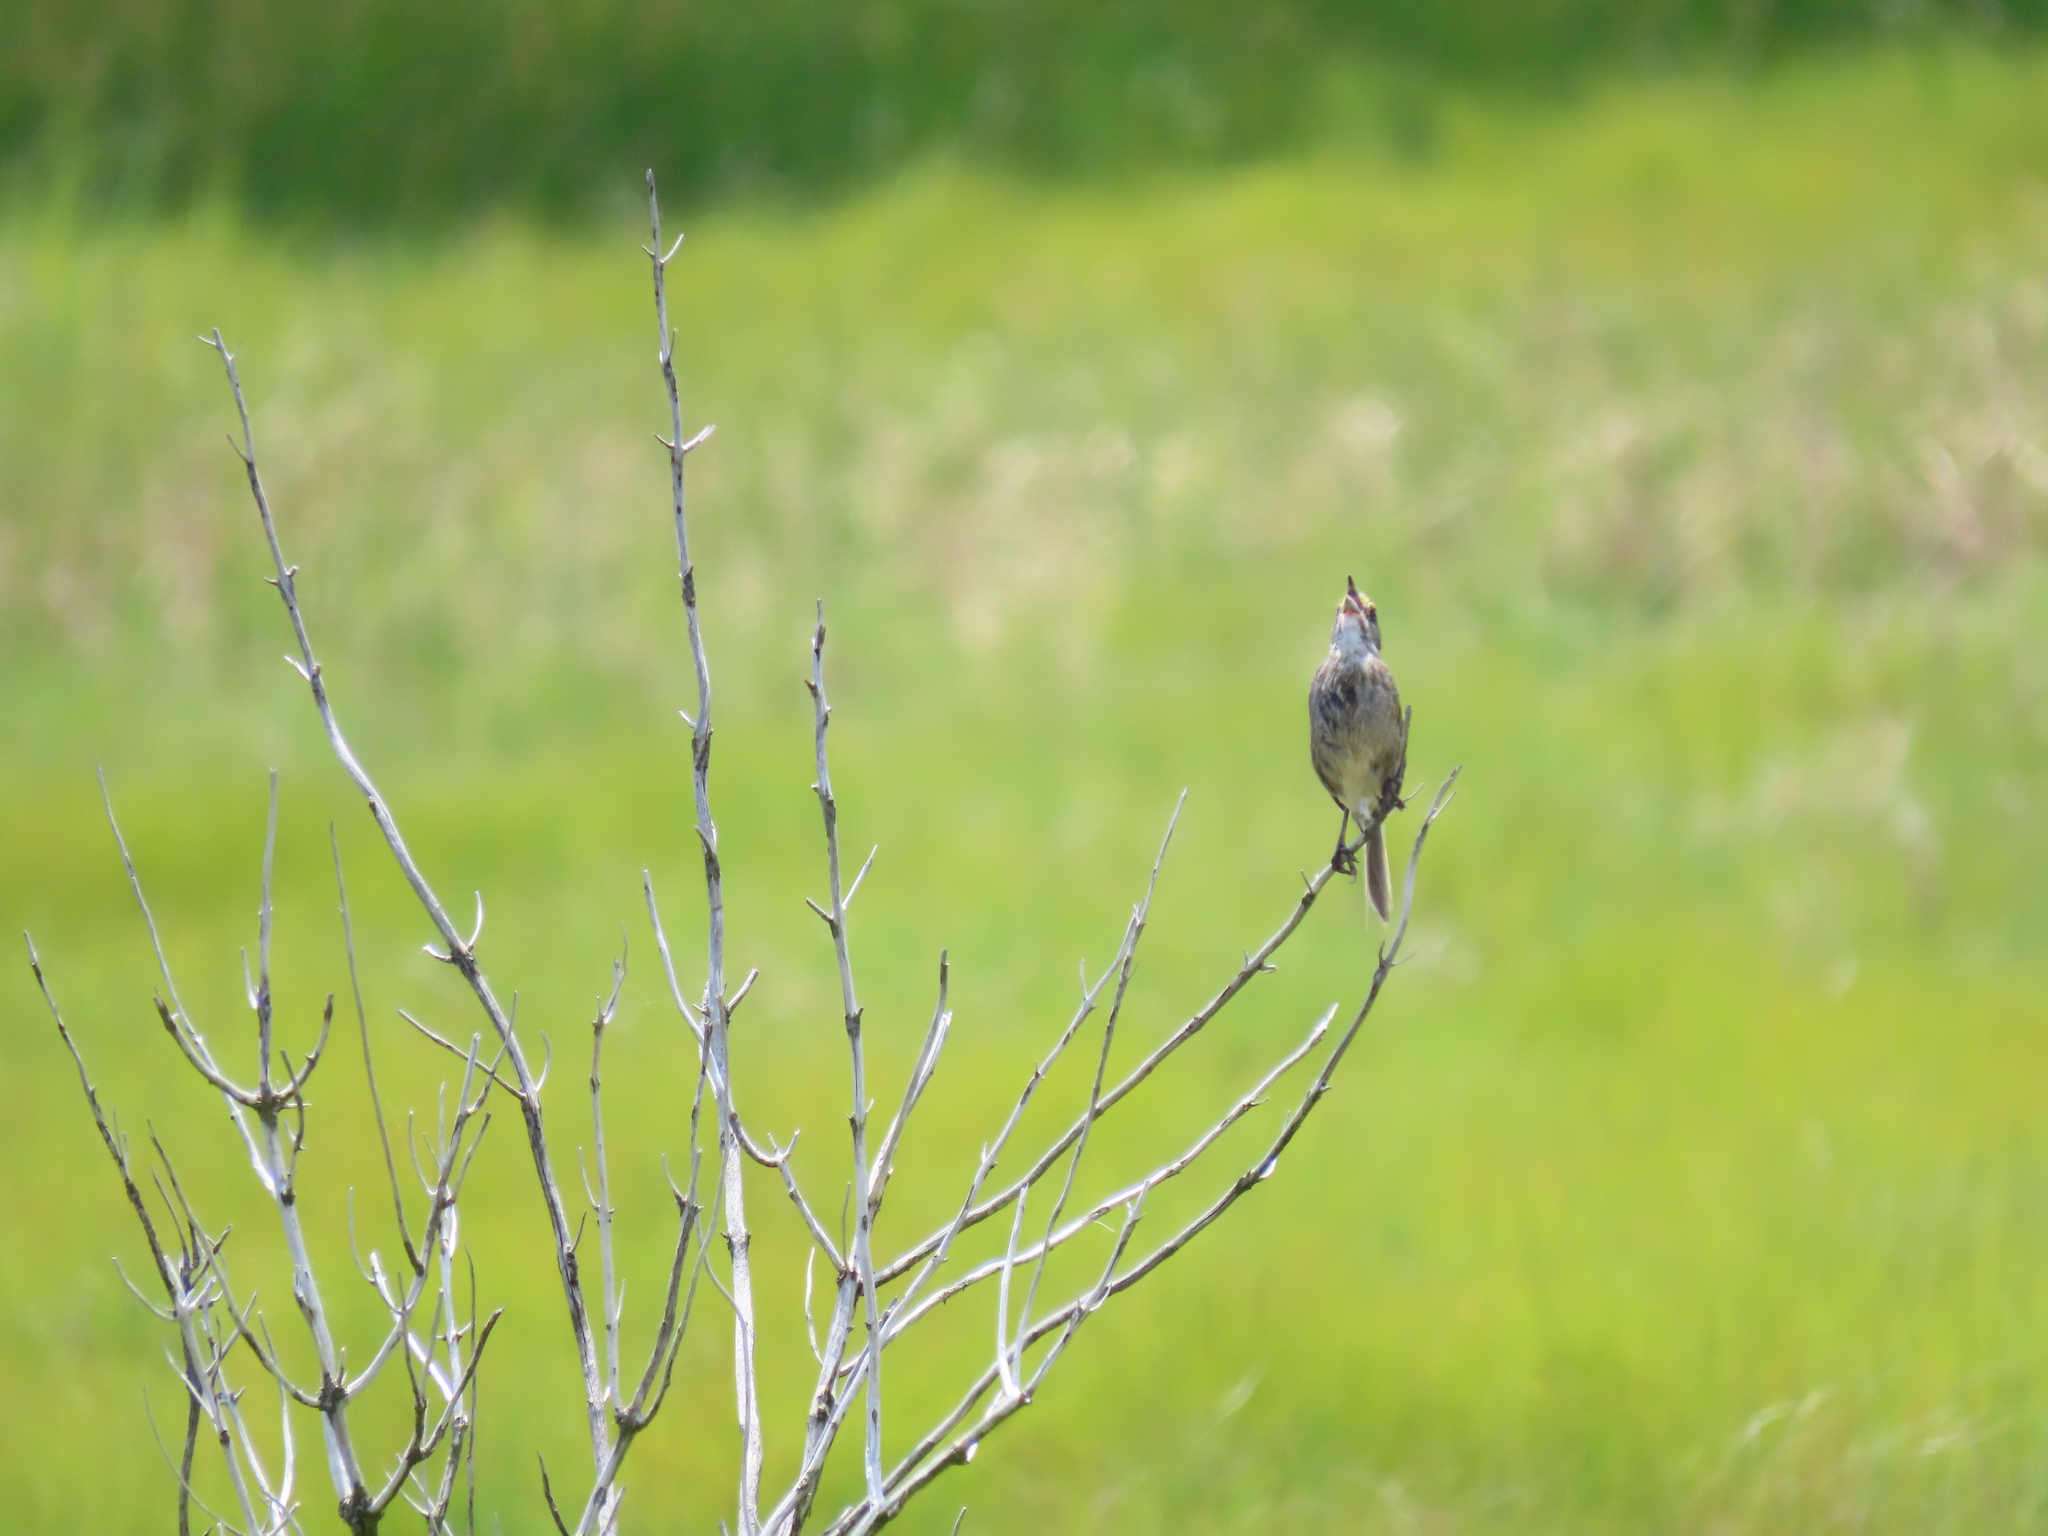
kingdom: Animalia
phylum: Chordata
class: Aves
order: Passeriformes
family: Passerellidae
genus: Ammospiza
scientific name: Ammospiza maritima
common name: Seaside sparrow
